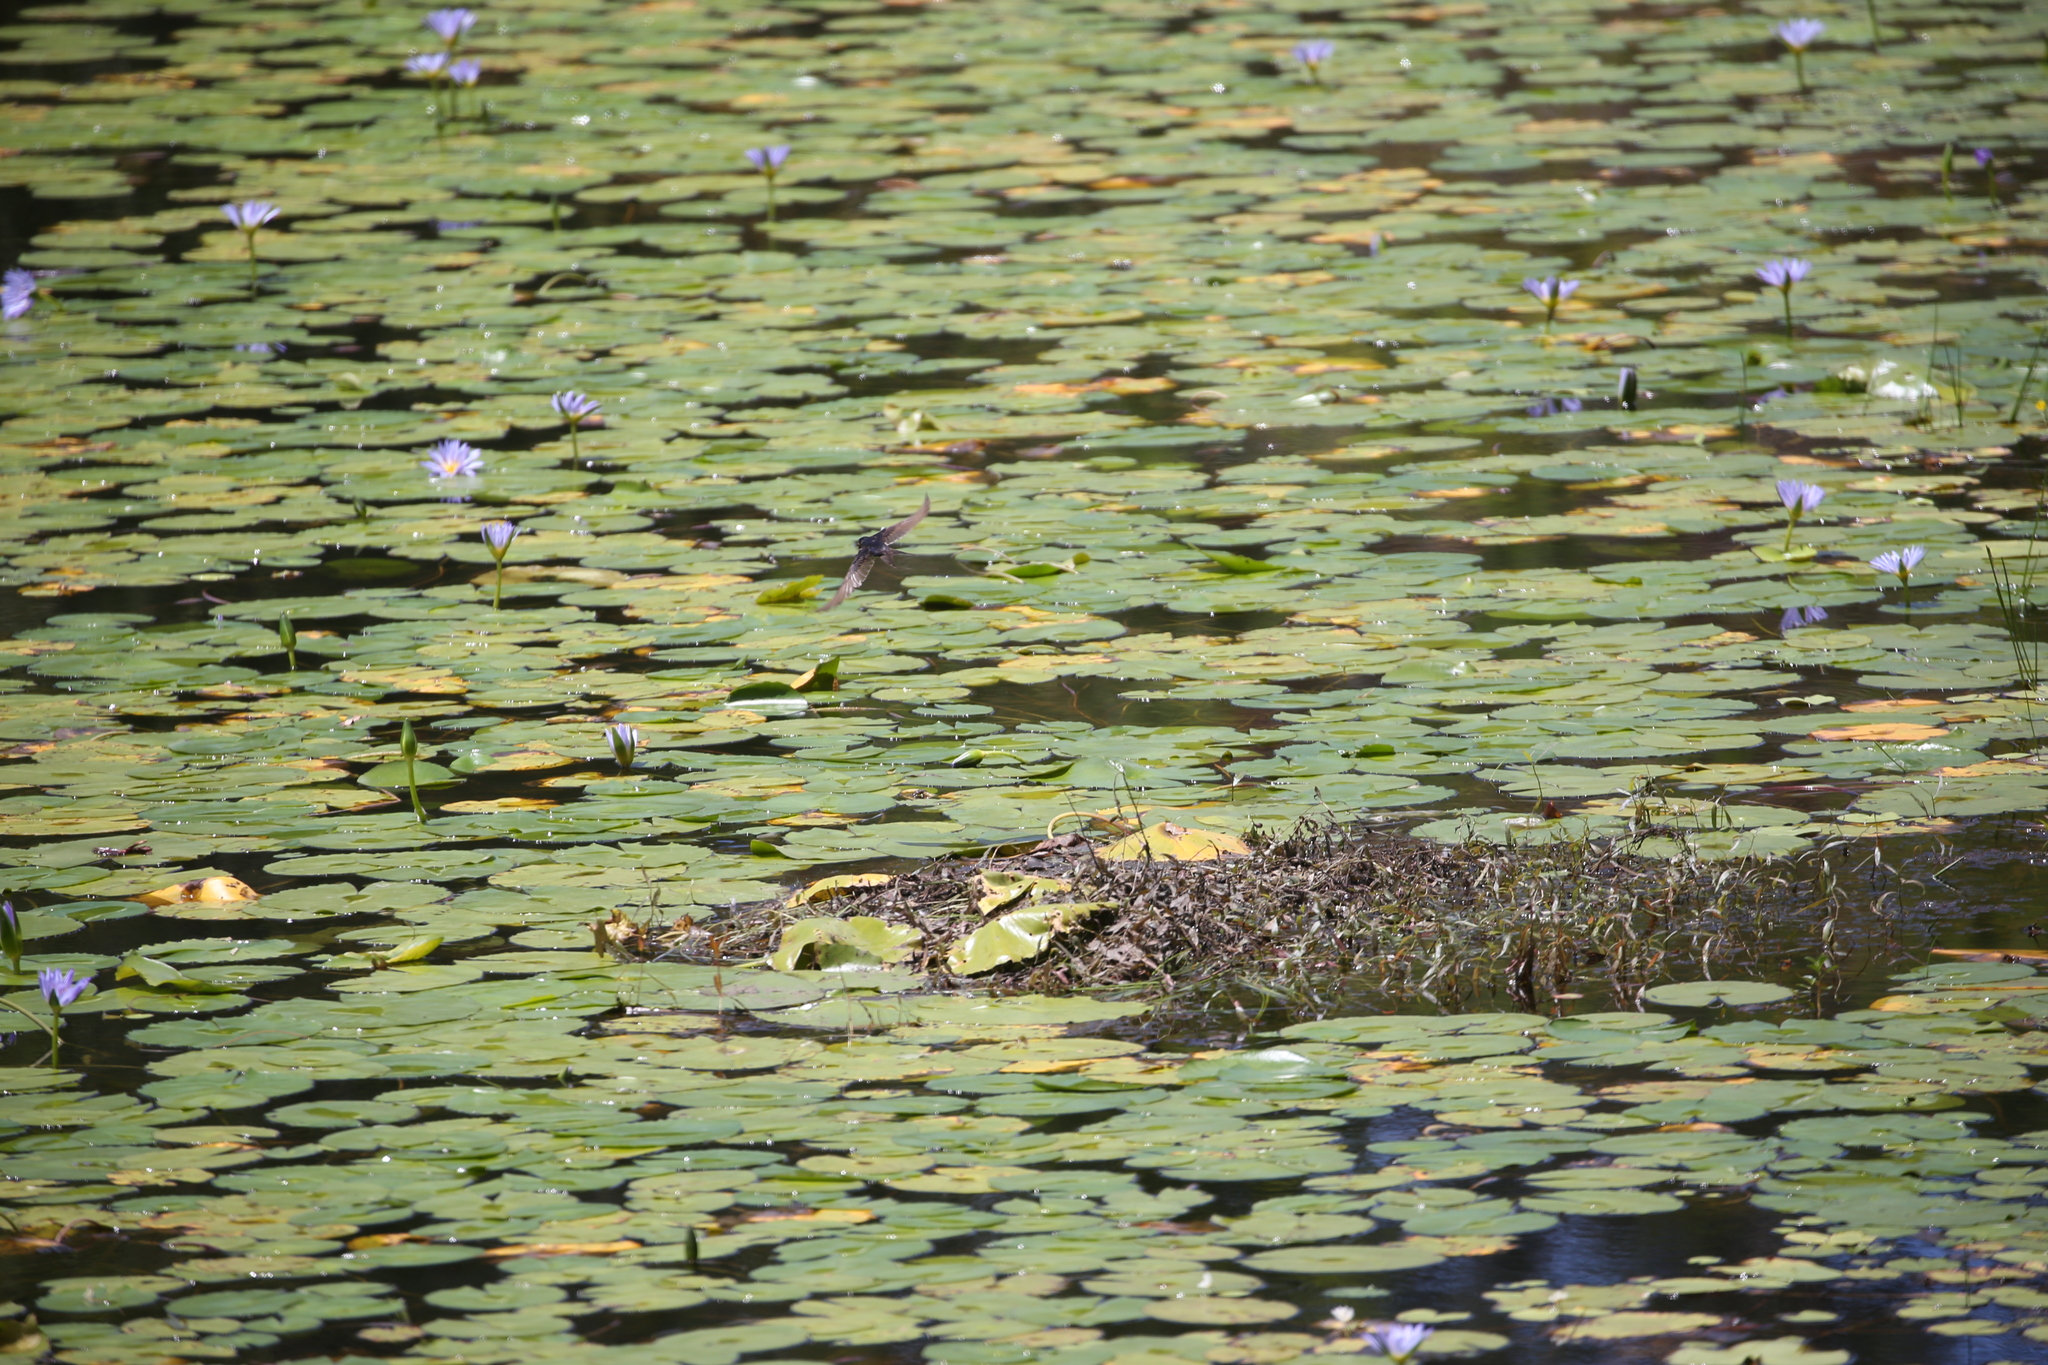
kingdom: Animalia
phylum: Chordata
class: Aves
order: Passeriformes
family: Hirundinidae
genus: Hirundo
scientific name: Hirundo neoxena
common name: Welcome swallow
